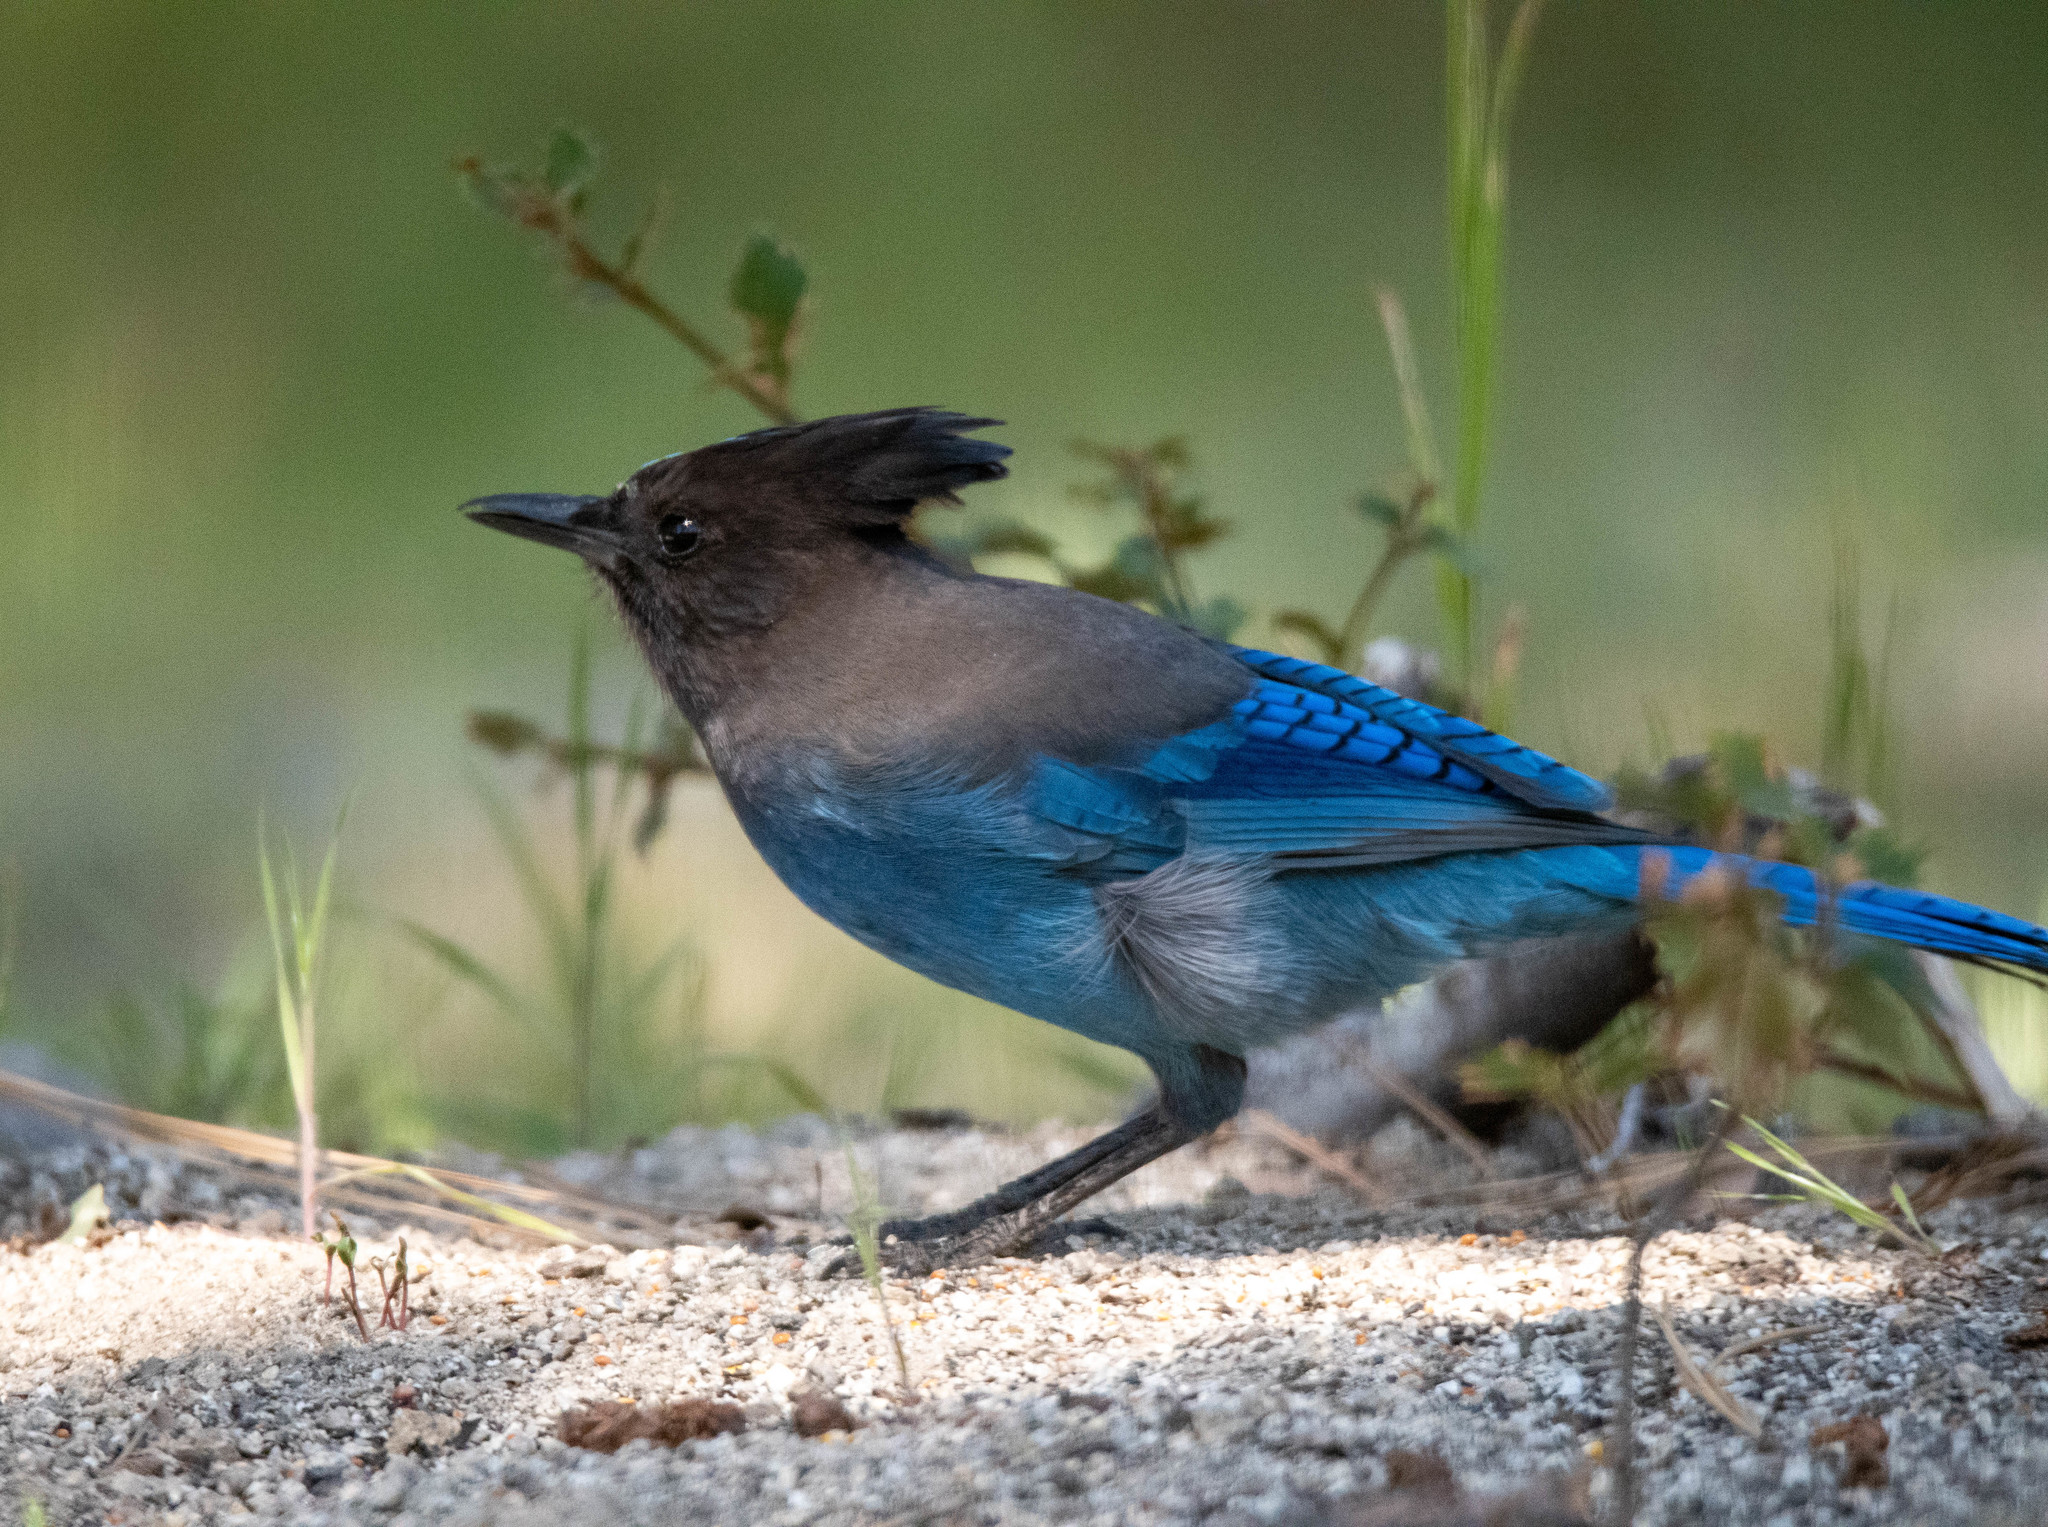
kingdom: Animalia
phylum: Chordata
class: Aves
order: Passeriformes
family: Corvidae
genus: Cyanocitta
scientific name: Cyanocitta stelleri
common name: Steller's jay
